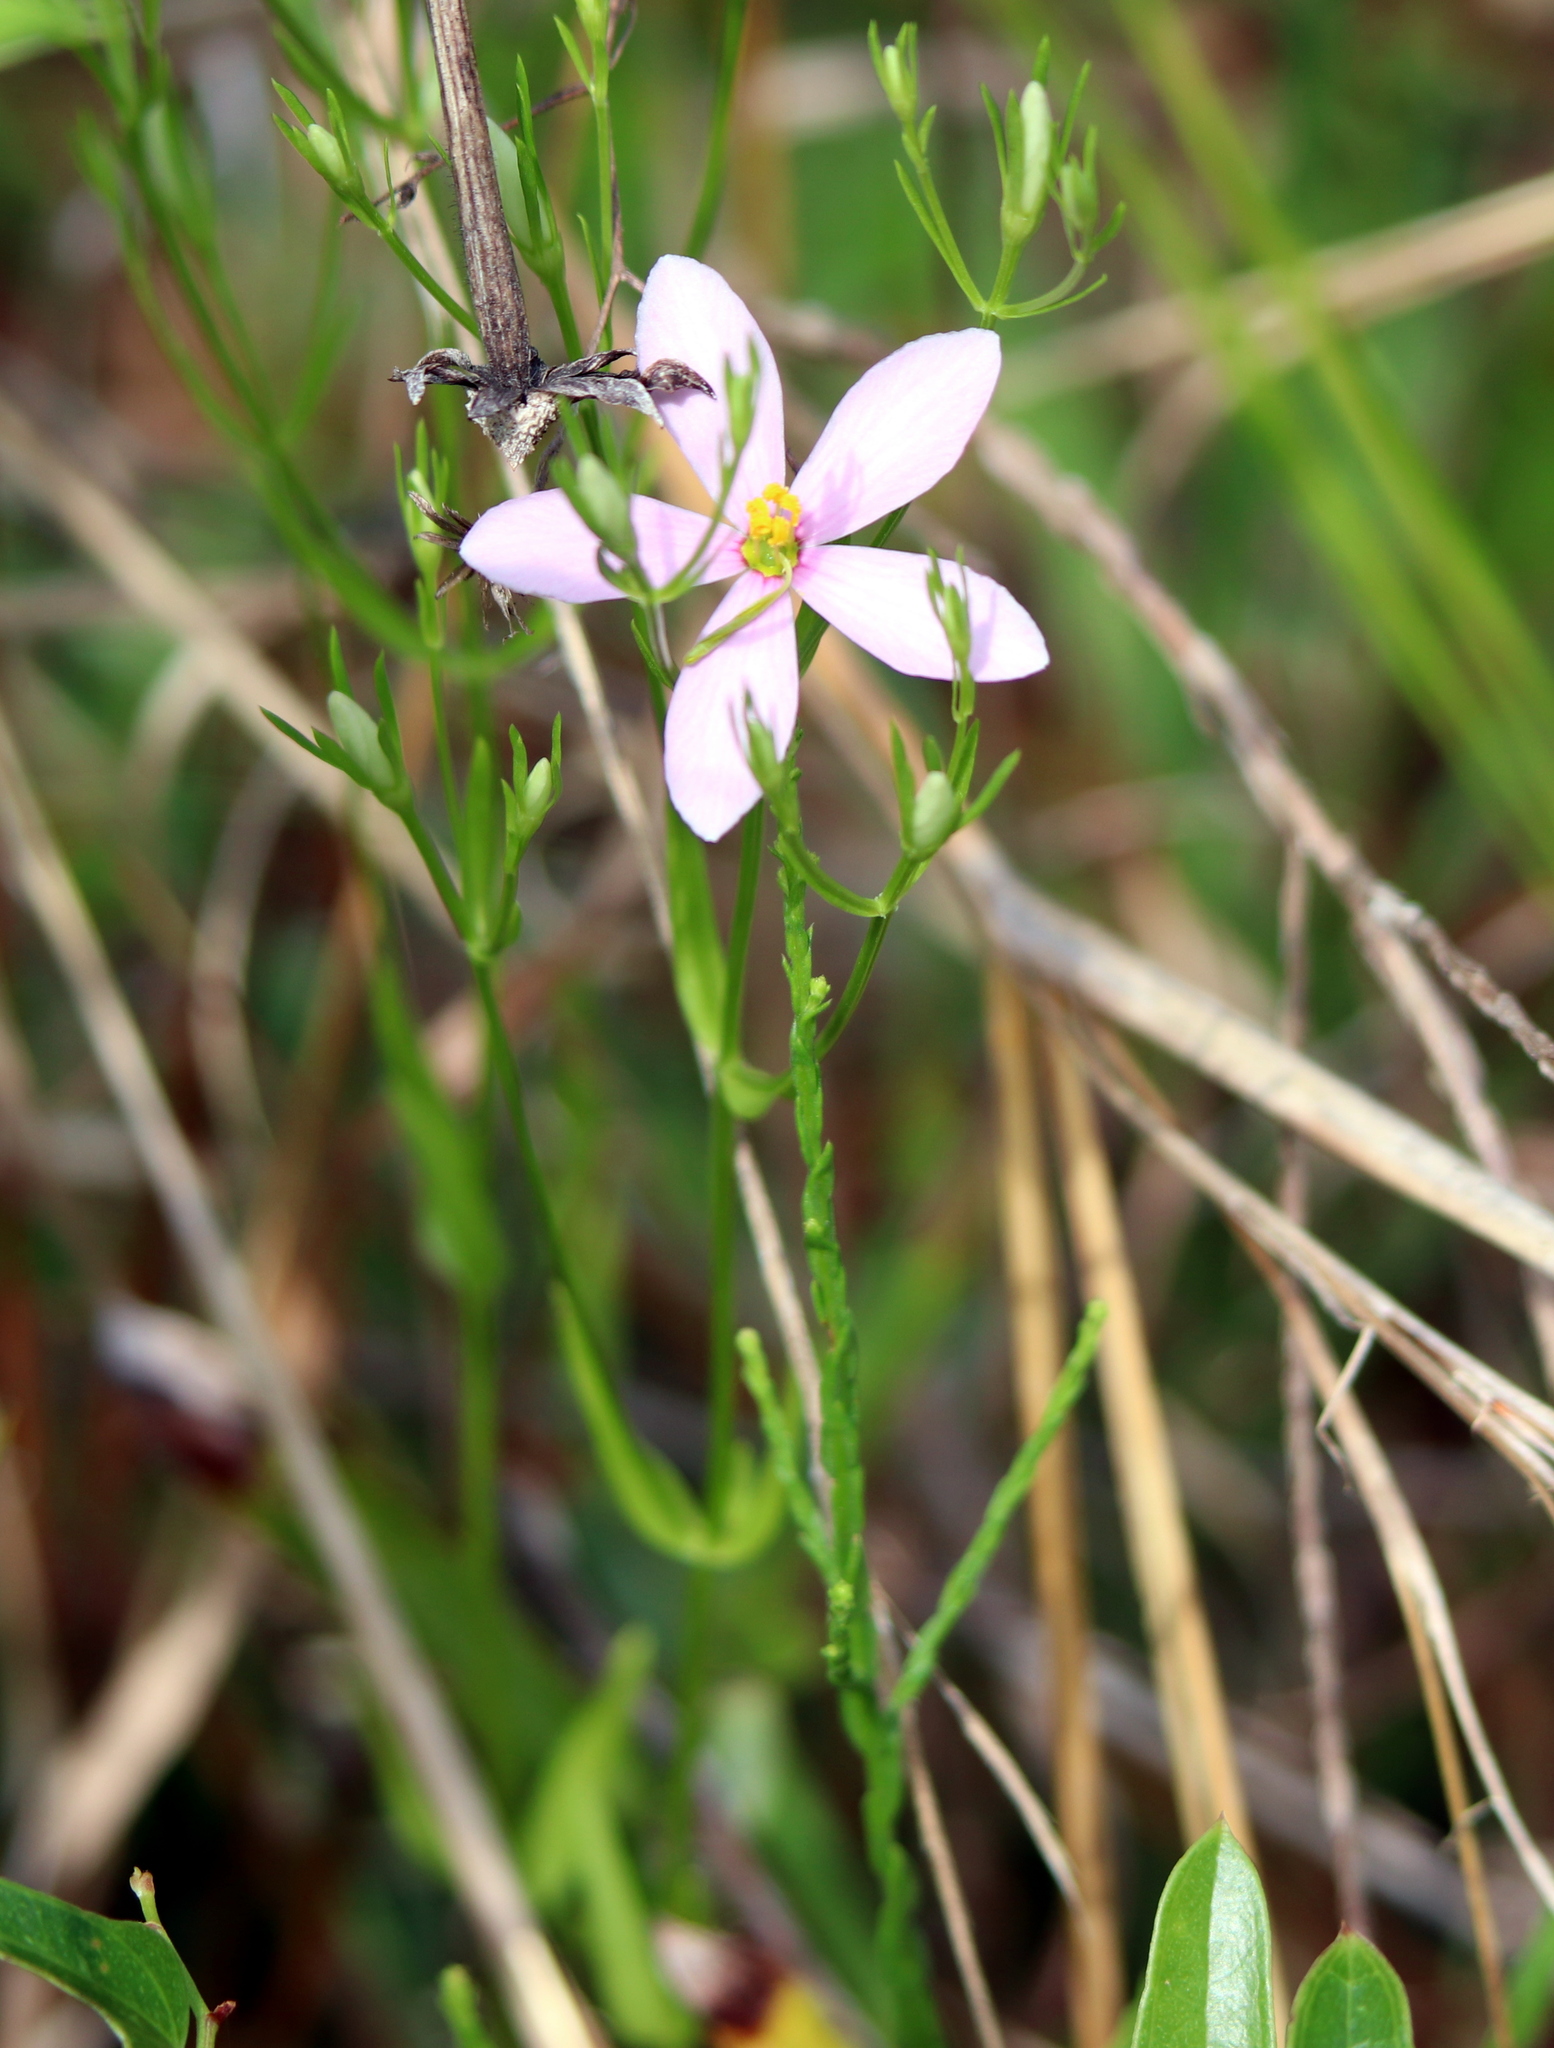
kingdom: Plantae
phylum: Tracheophyta
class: Magnoliopsida
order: Gentianales
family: Gentianaceae
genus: Sabatia
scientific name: Sabatia stellaris
